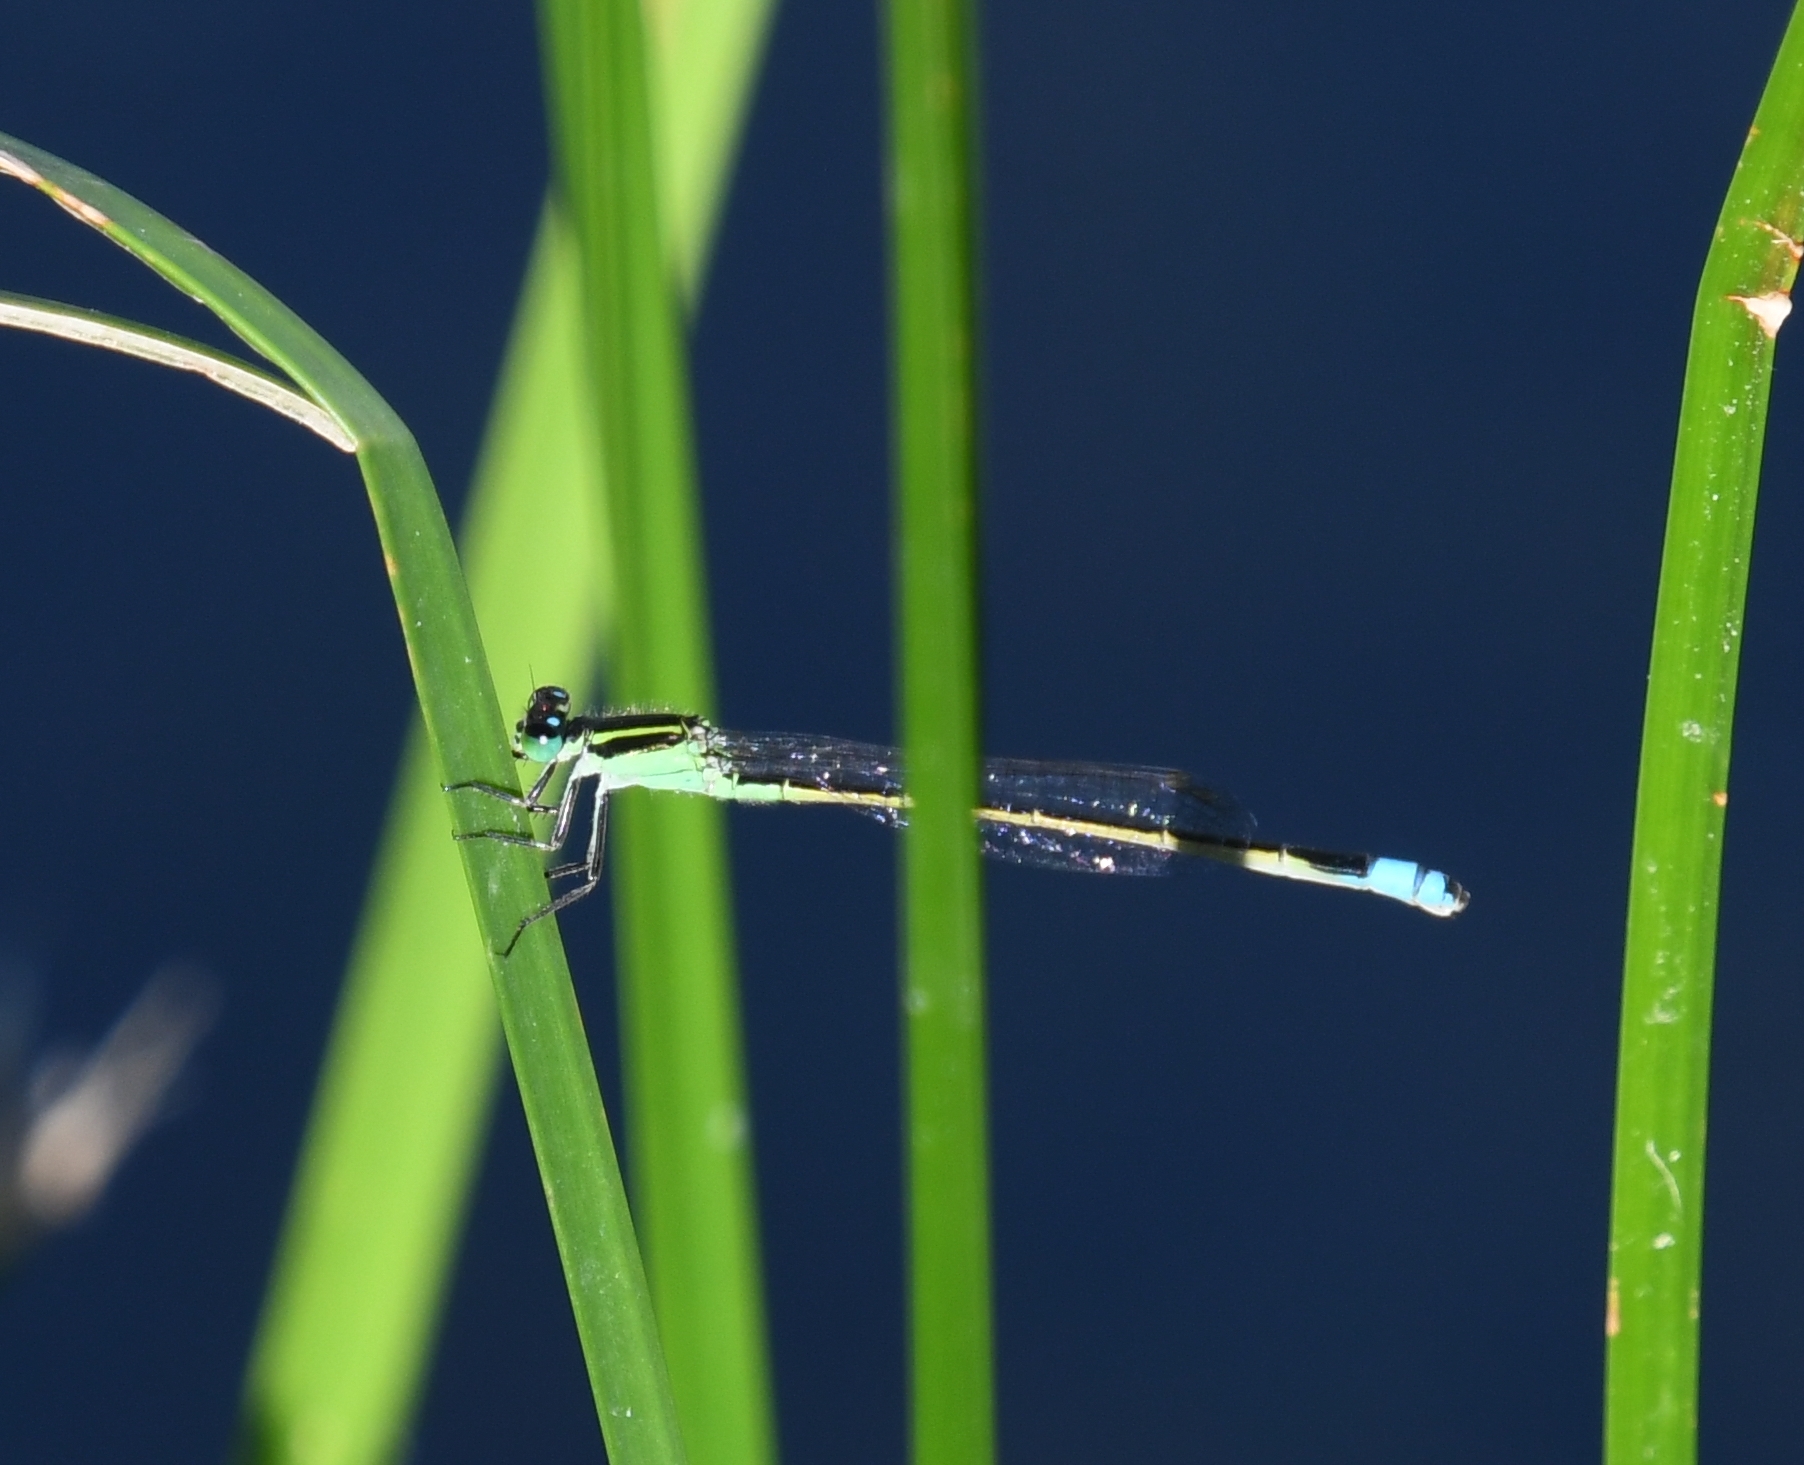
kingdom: Animalia
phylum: Arthropoda
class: Insecta
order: Odonata
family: Coenagrionidae
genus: Ischnura
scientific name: Ischnura ramburii
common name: Rambur's forktail
